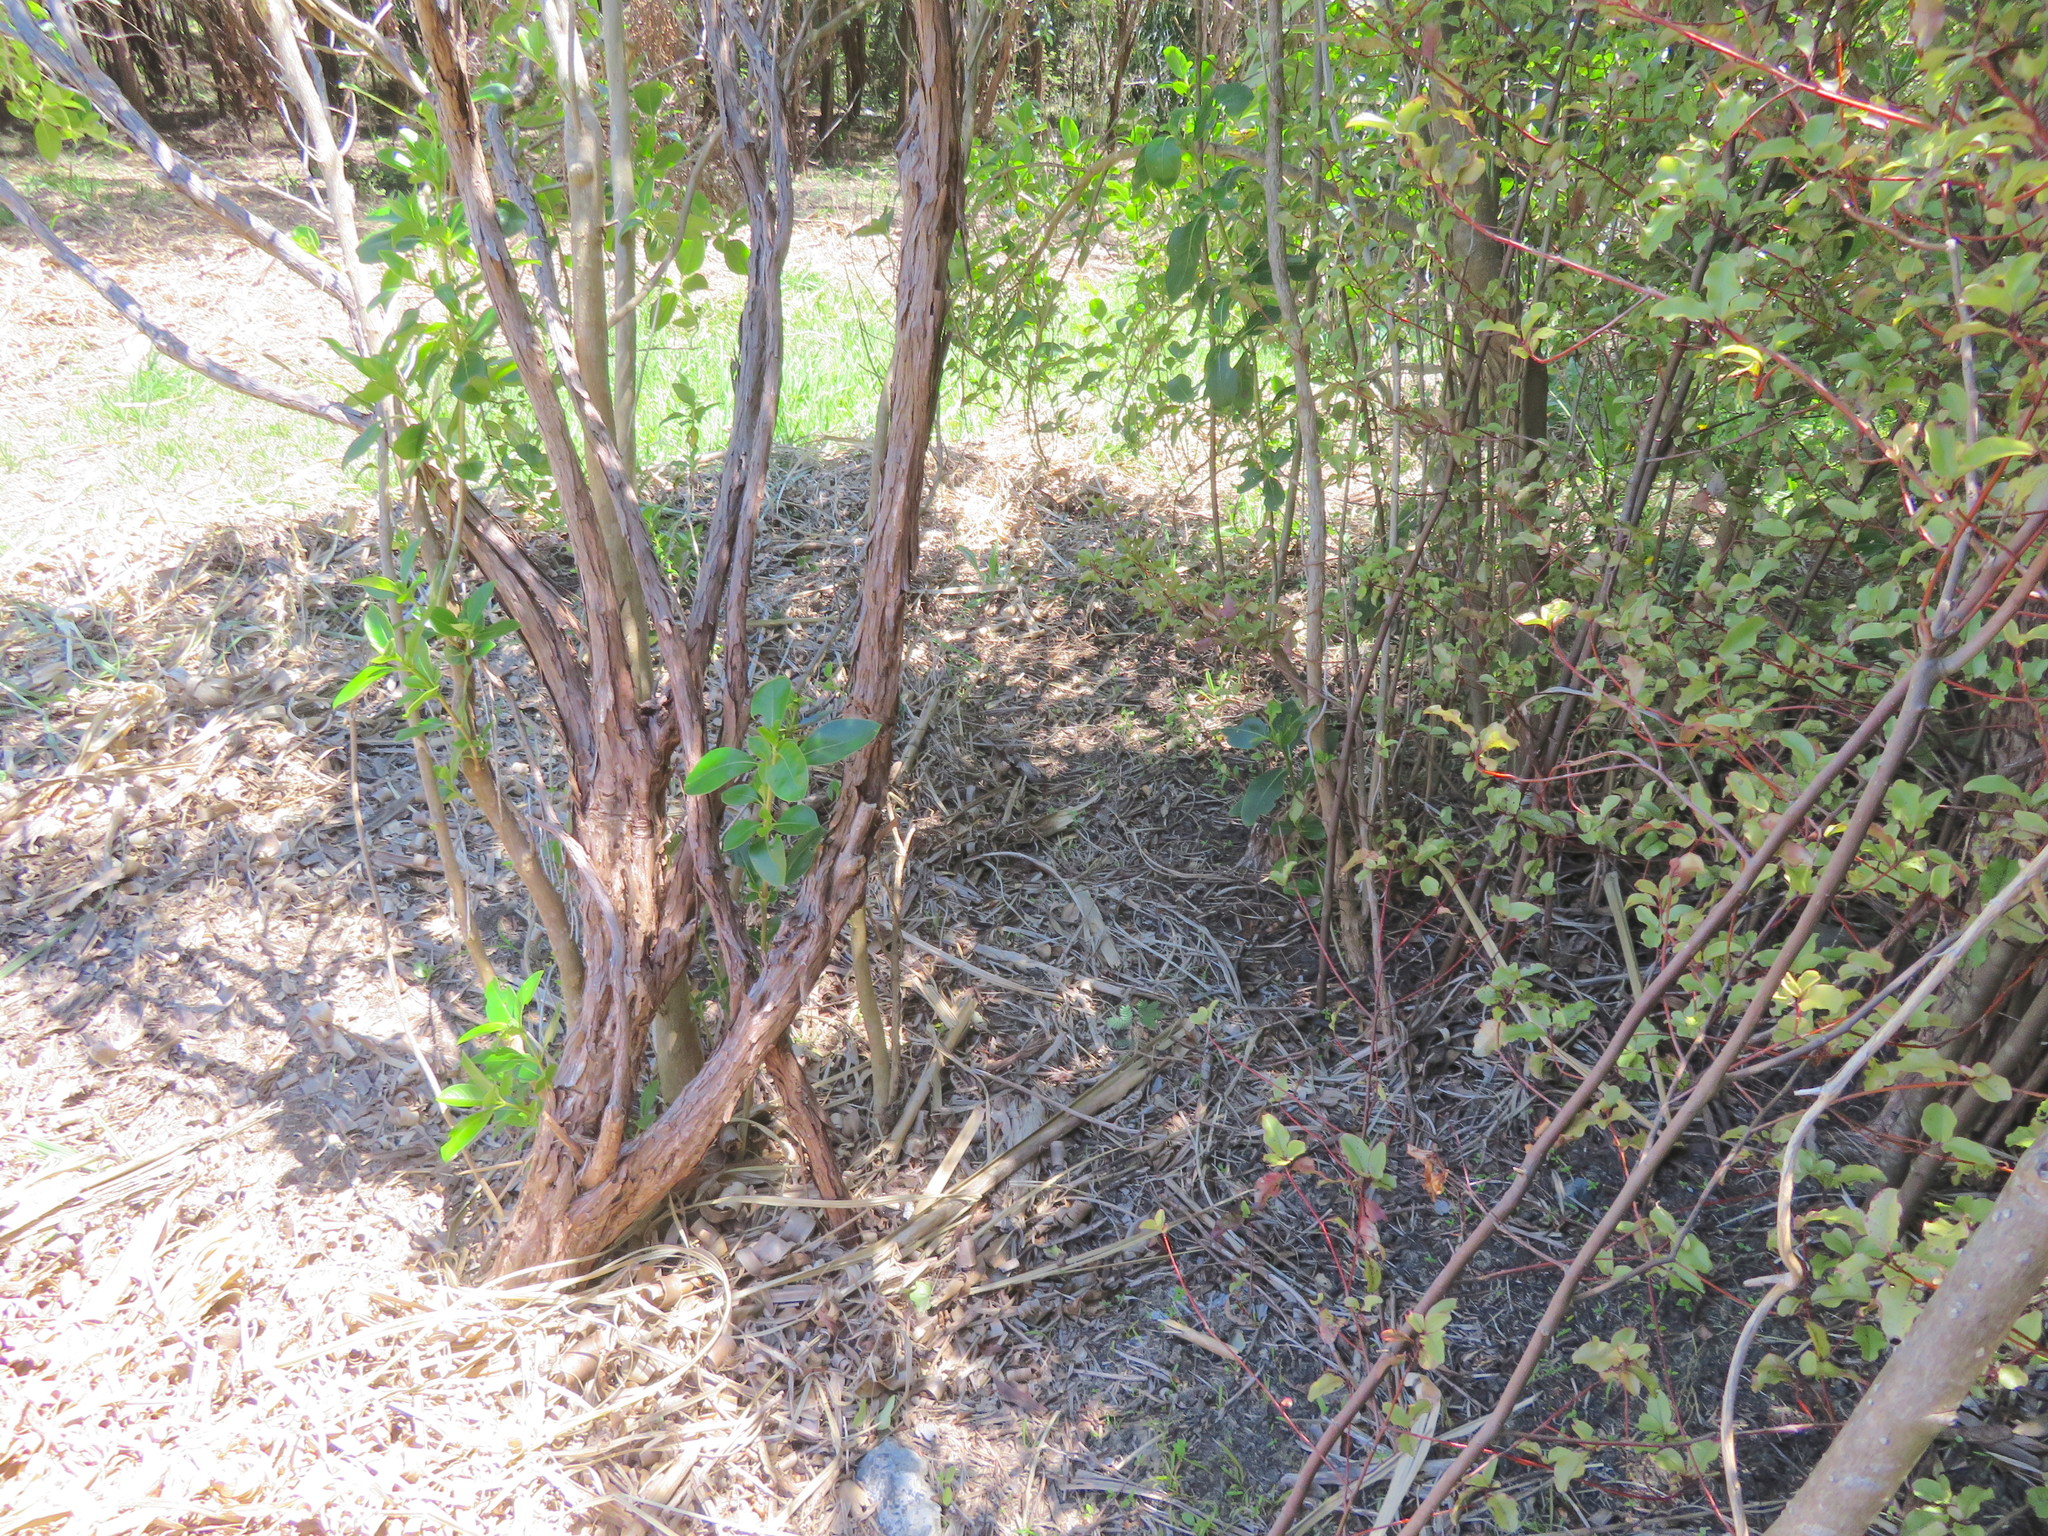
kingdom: Plantae
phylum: Tracheophyta
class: Magnoliopsida
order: Gentianales
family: Rubiaceae
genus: Coprosma
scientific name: Coprosma robusta
